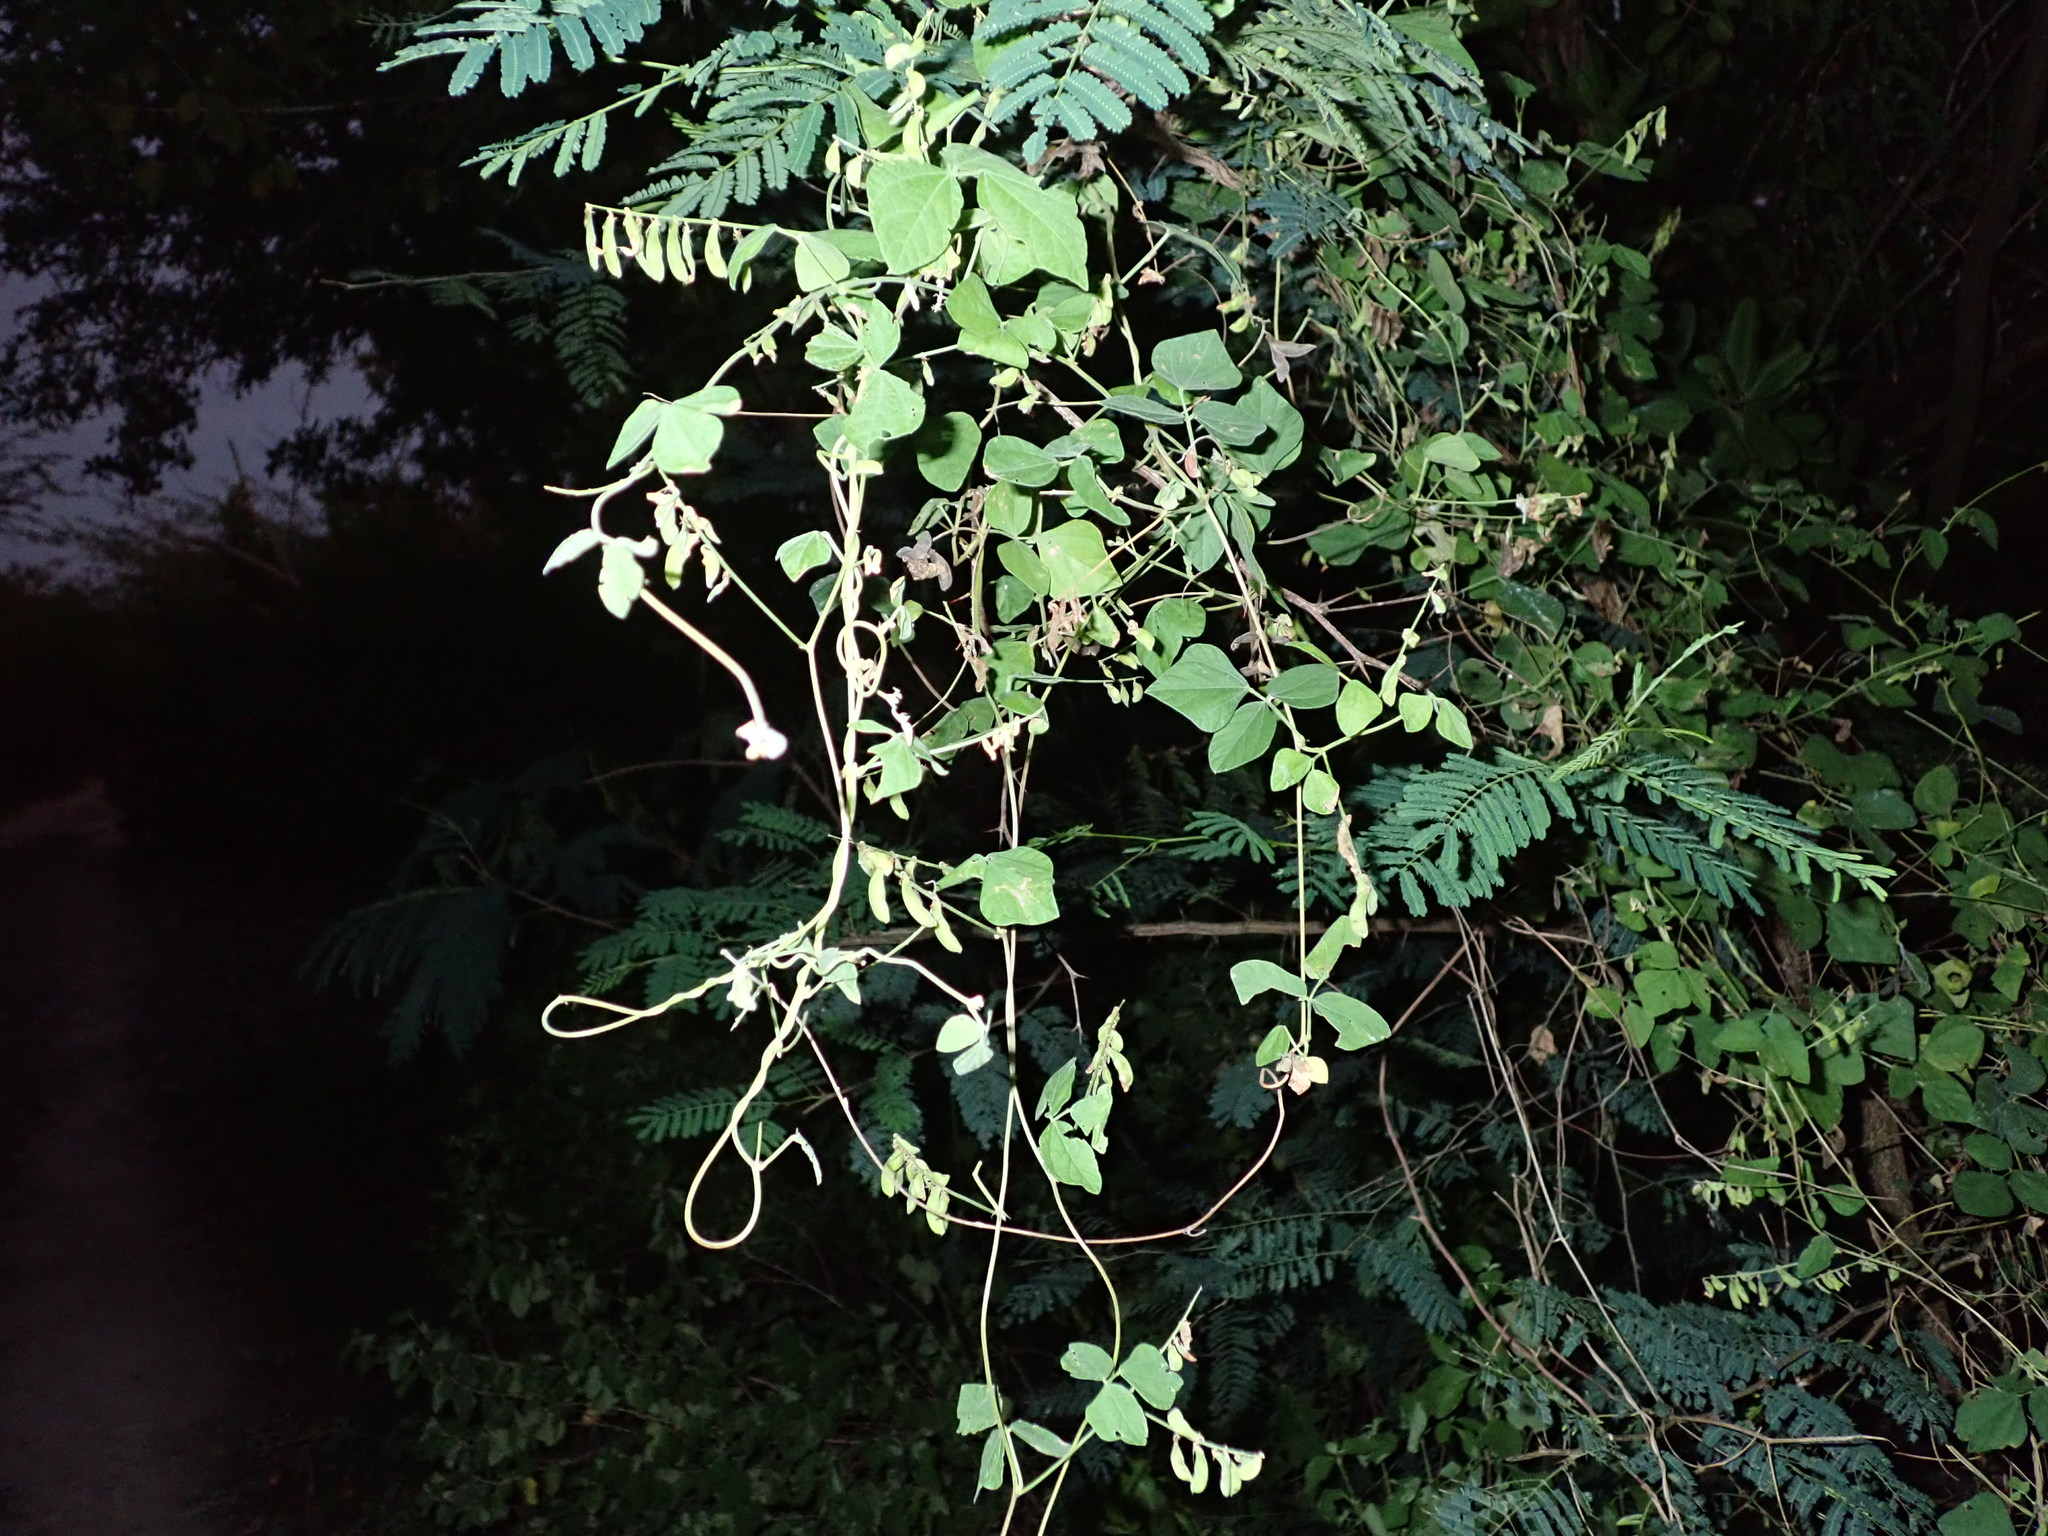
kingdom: Plantae
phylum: Tracheophyta
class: Magnoliopsida
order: Fabales
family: Fabaceae
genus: Rhynchosia
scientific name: Rhynchosia minima
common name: Least snoutbean
